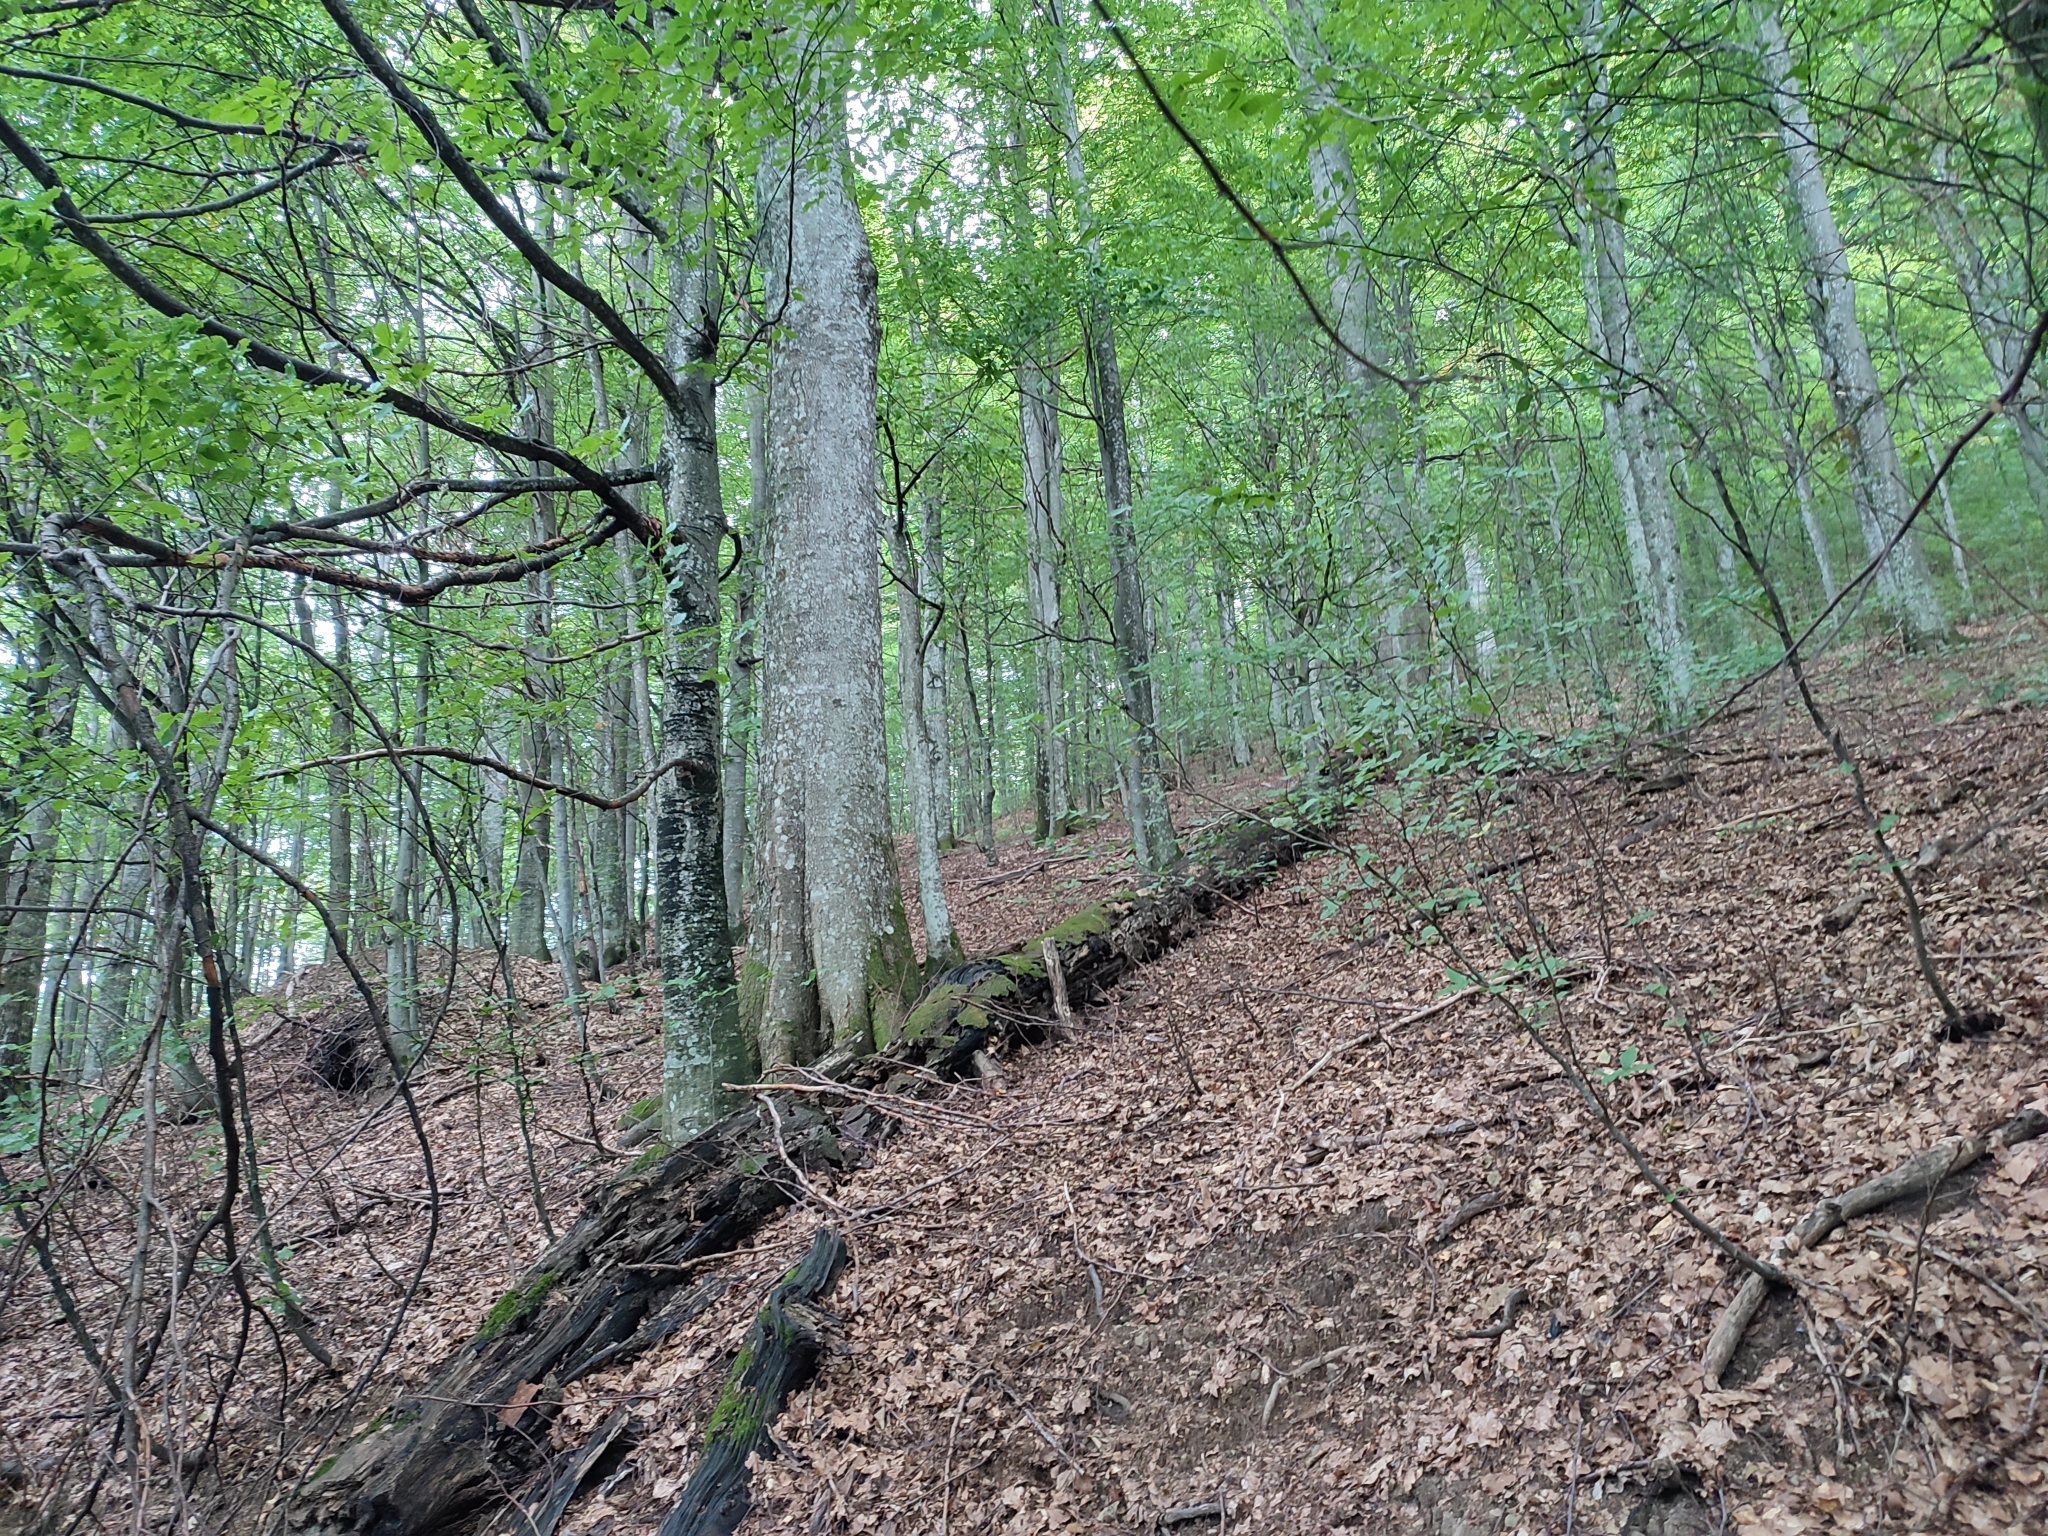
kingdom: Plantae
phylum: Tracheophyta
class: Magnoliopsida
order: Fagales
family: Fagaceae
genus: Fagus
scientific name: Fagus sylvatica
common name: Beech
